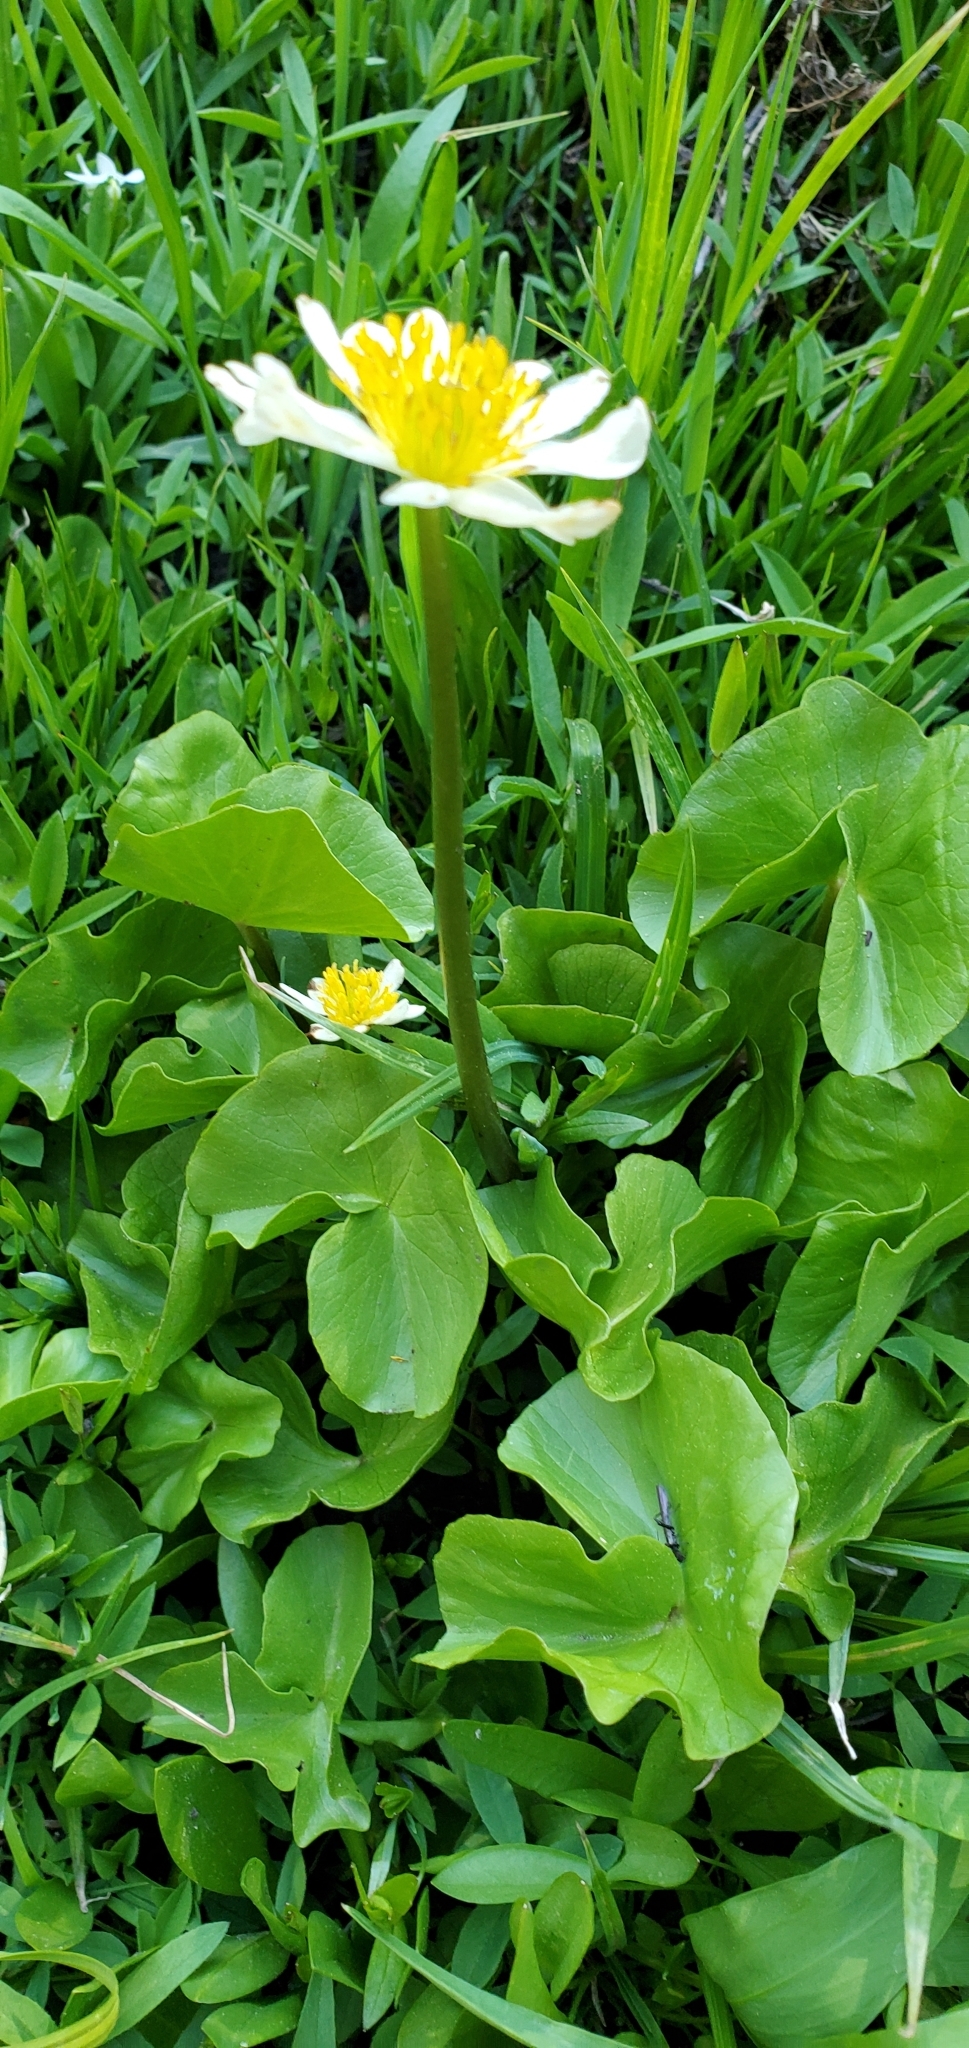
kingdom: Plantae
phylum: Tracheophyta
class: Magnoliopsida
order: Ranunculales
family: Ranunculaceae
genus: Caltha
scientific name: Caltha leptosepala
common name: Elkslip
